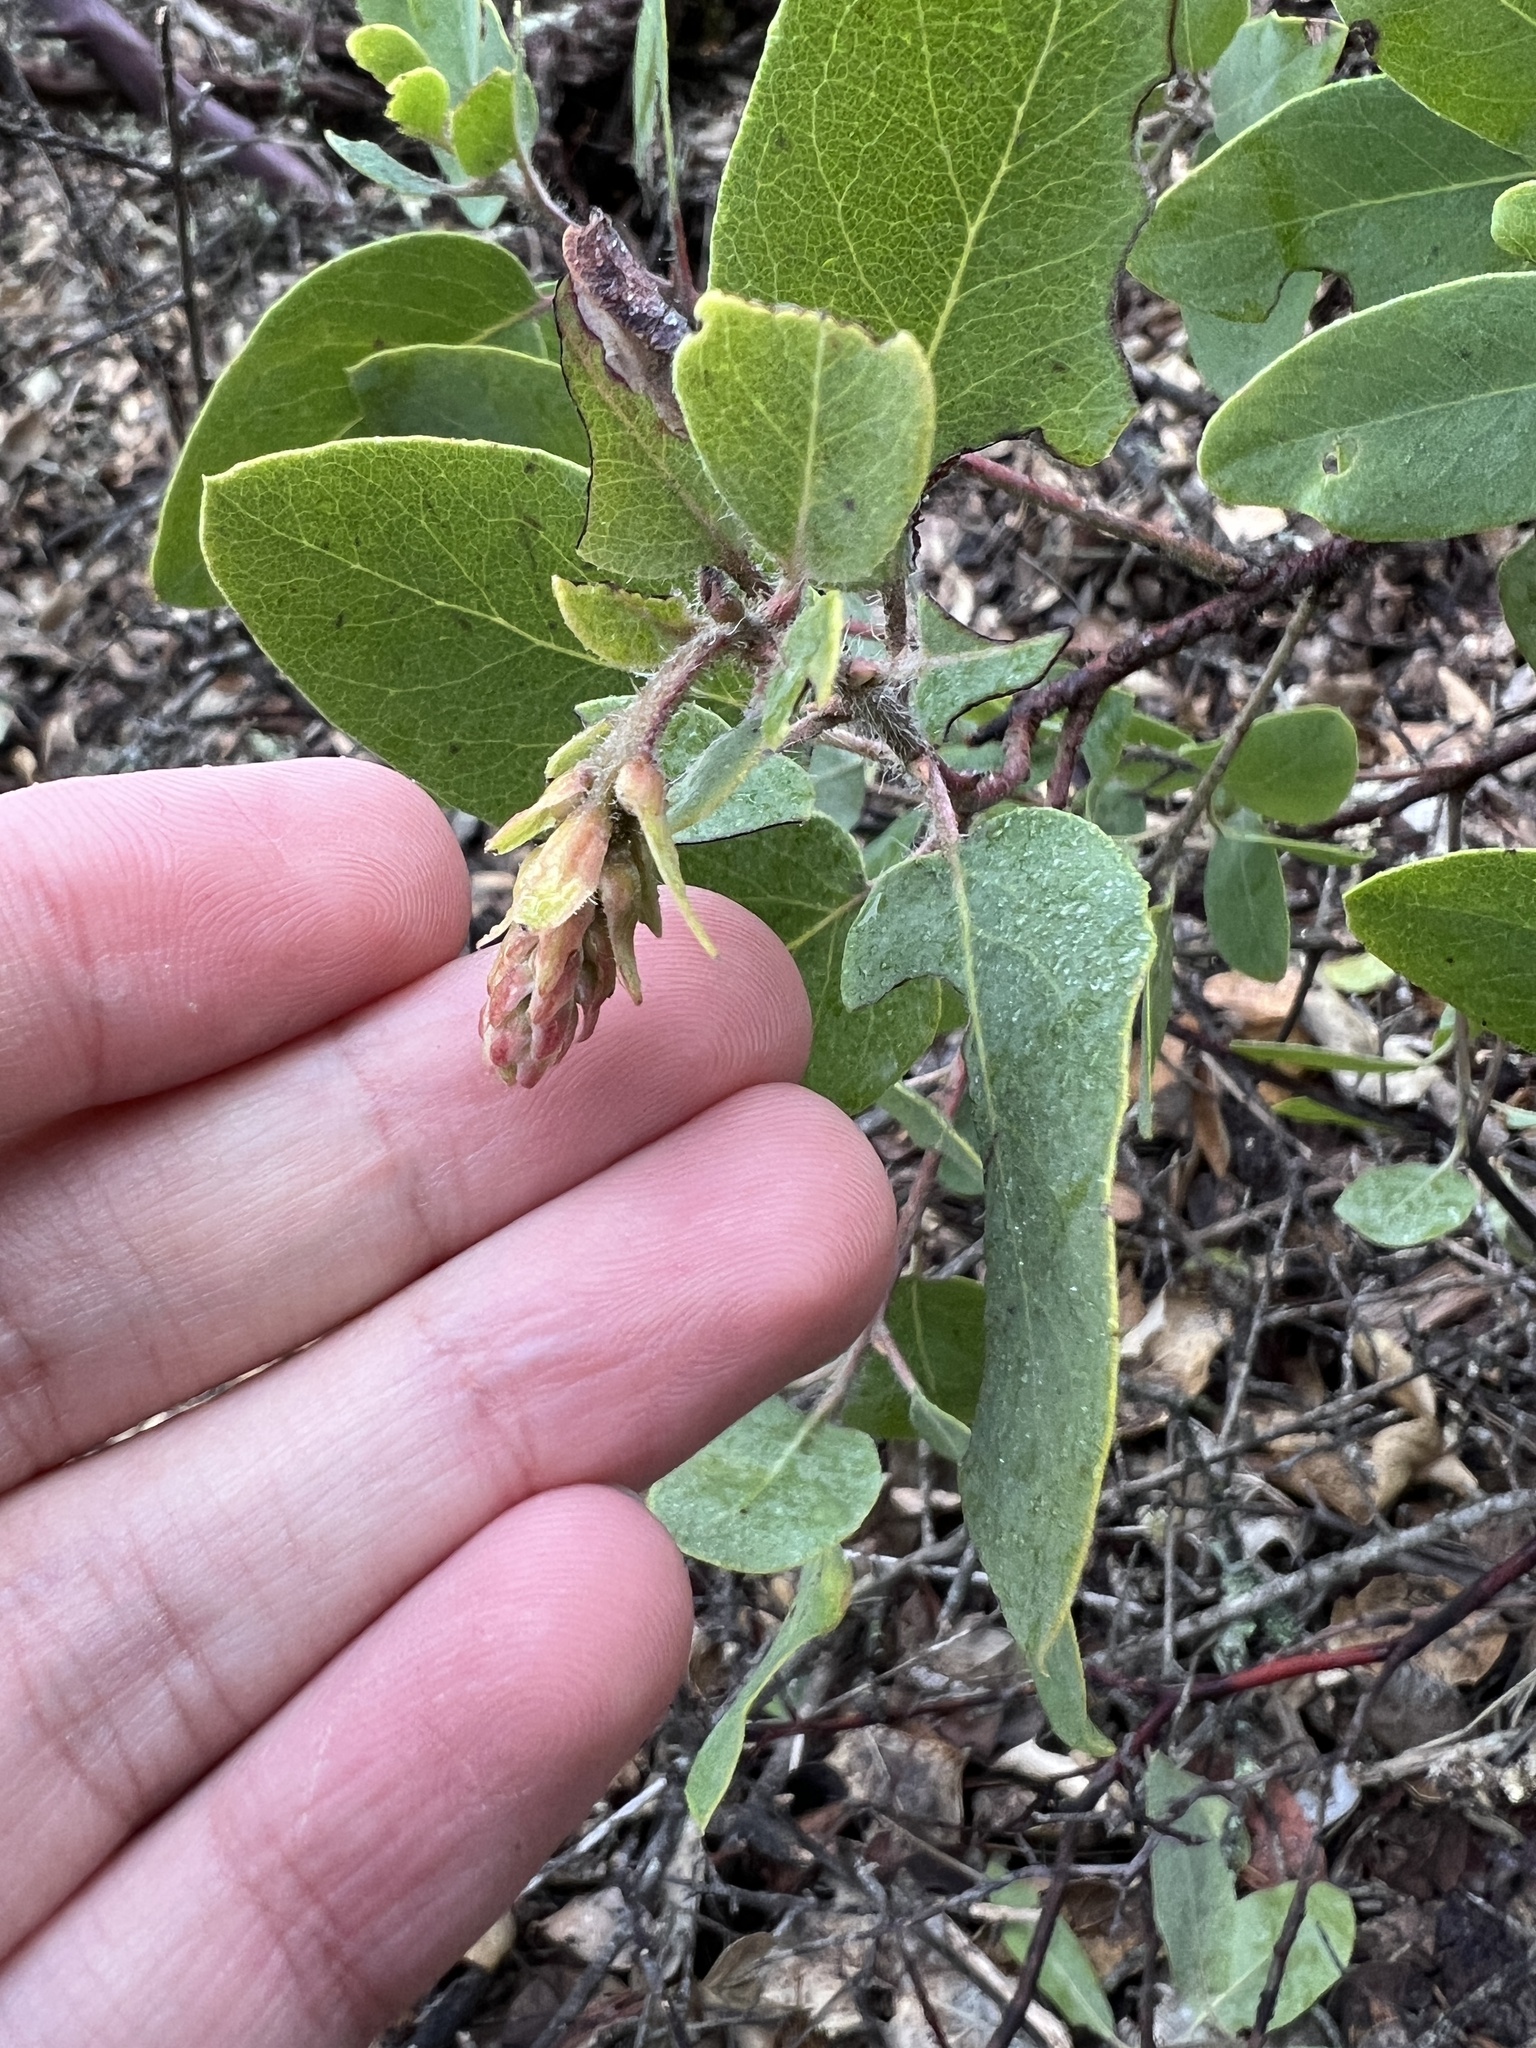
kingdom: Plantae
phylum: Tracheophyta
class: Magnoliopsida
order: Ericales
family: Ericaceae
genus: Arctostaphylos
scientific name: Arctostaphylos glandulosa
